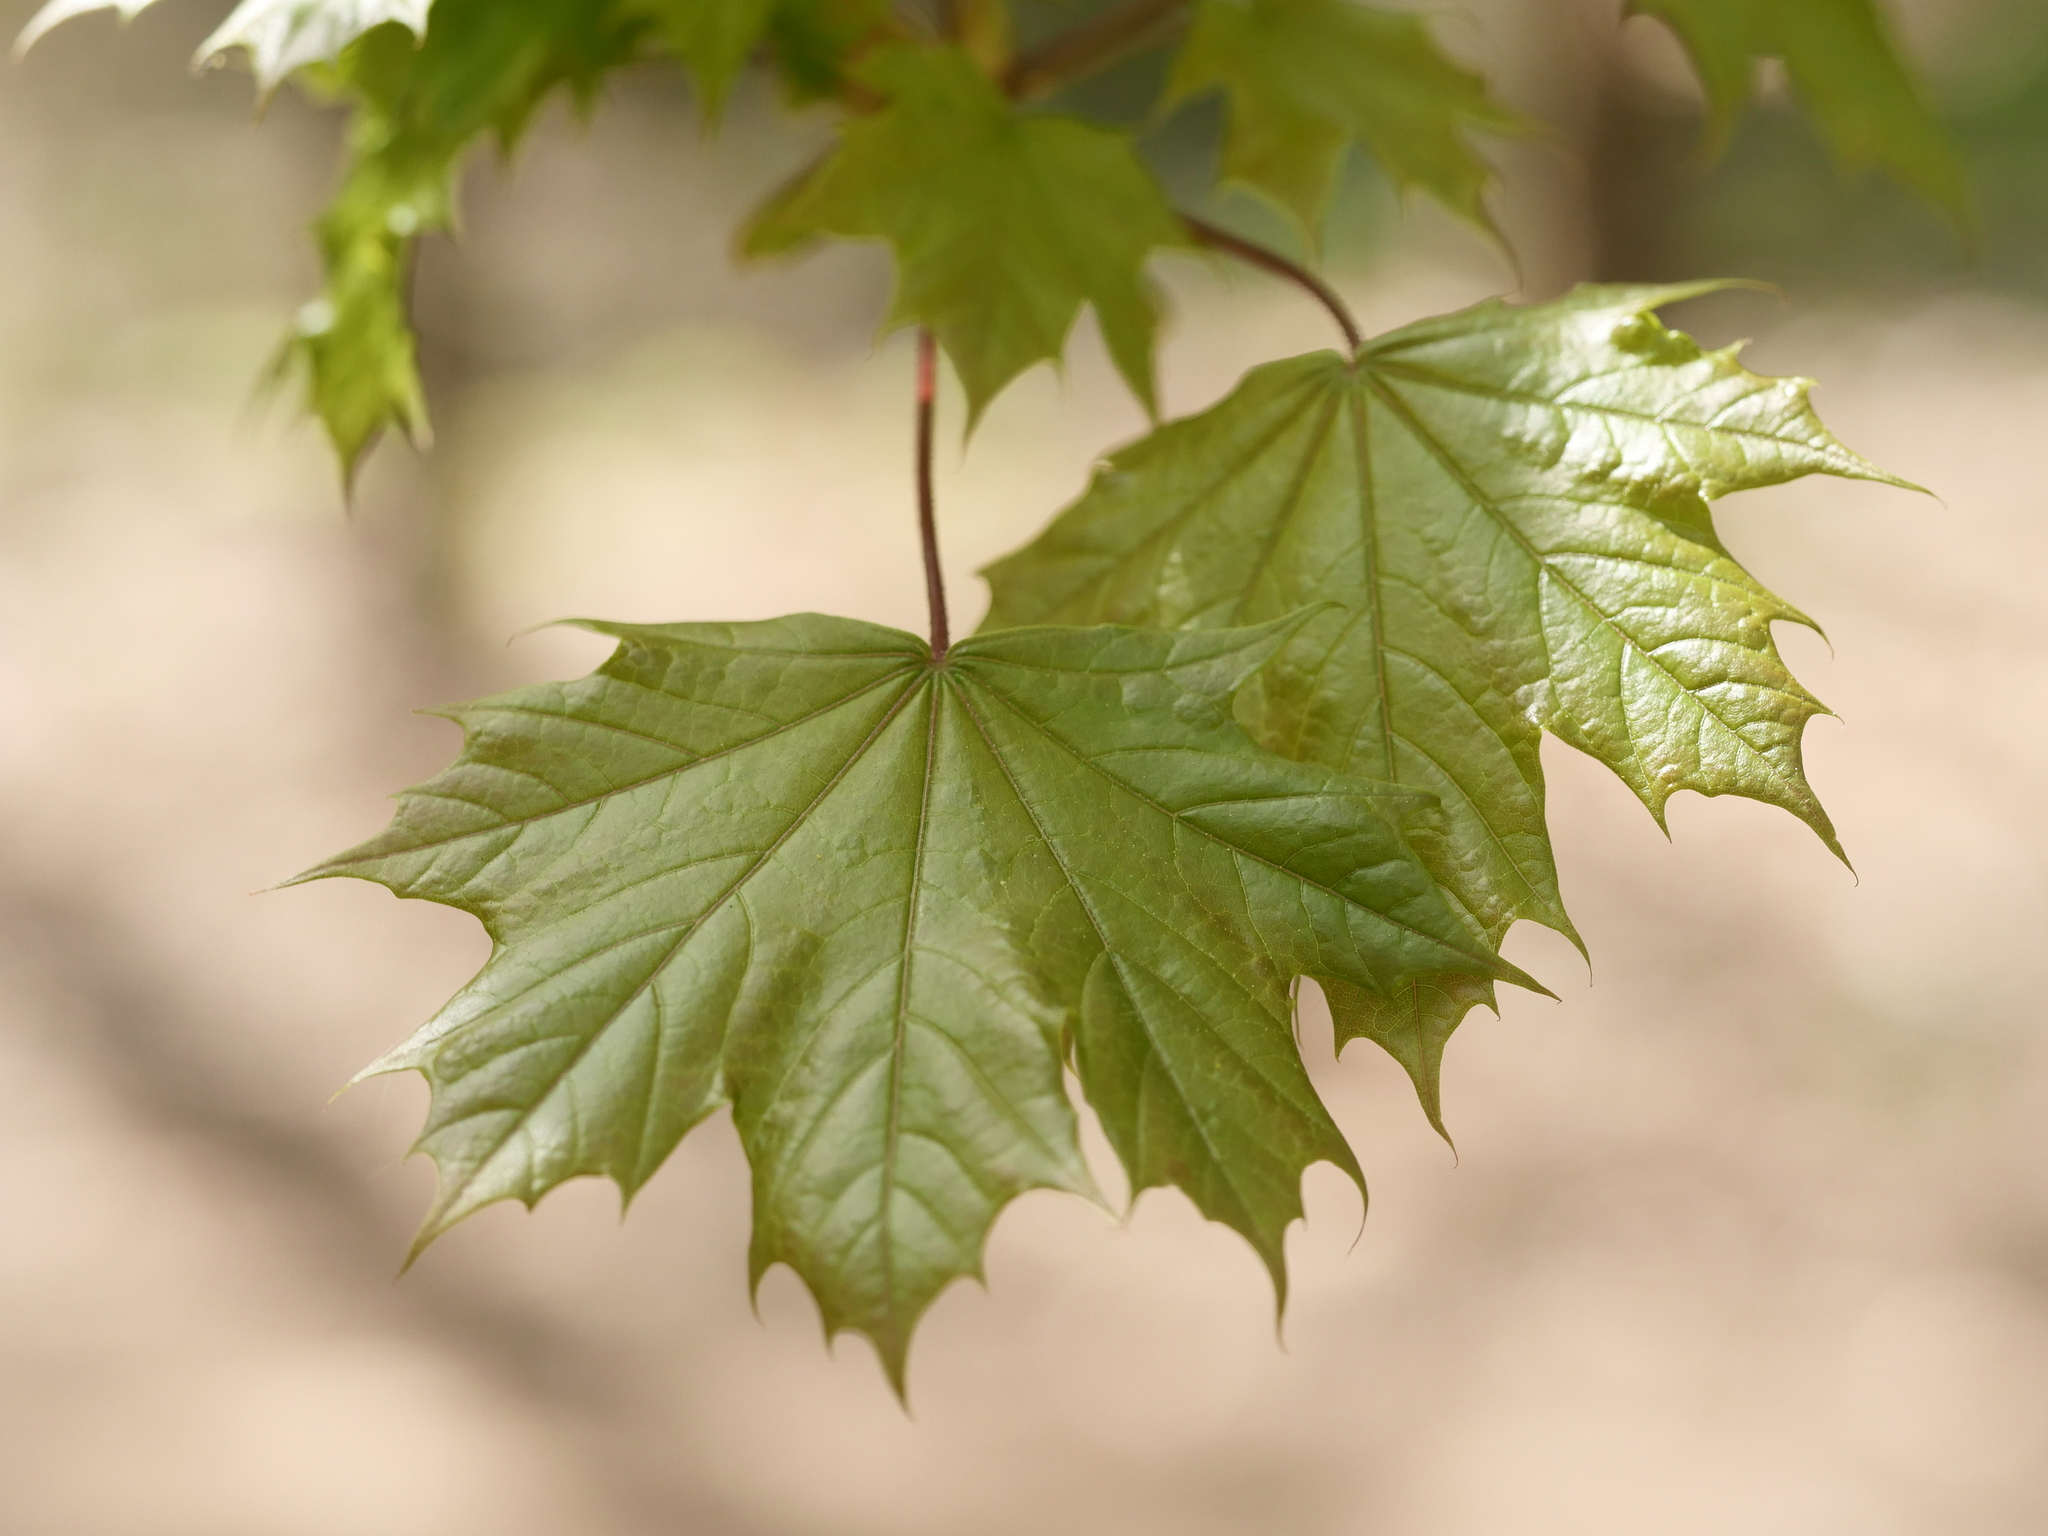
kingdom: Plantae
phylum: Tracheophyta
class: Magnoliopsida
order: Sapindales
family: Sapindaceae
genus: Acer
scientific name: Acer platanoides
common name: Norway maple
